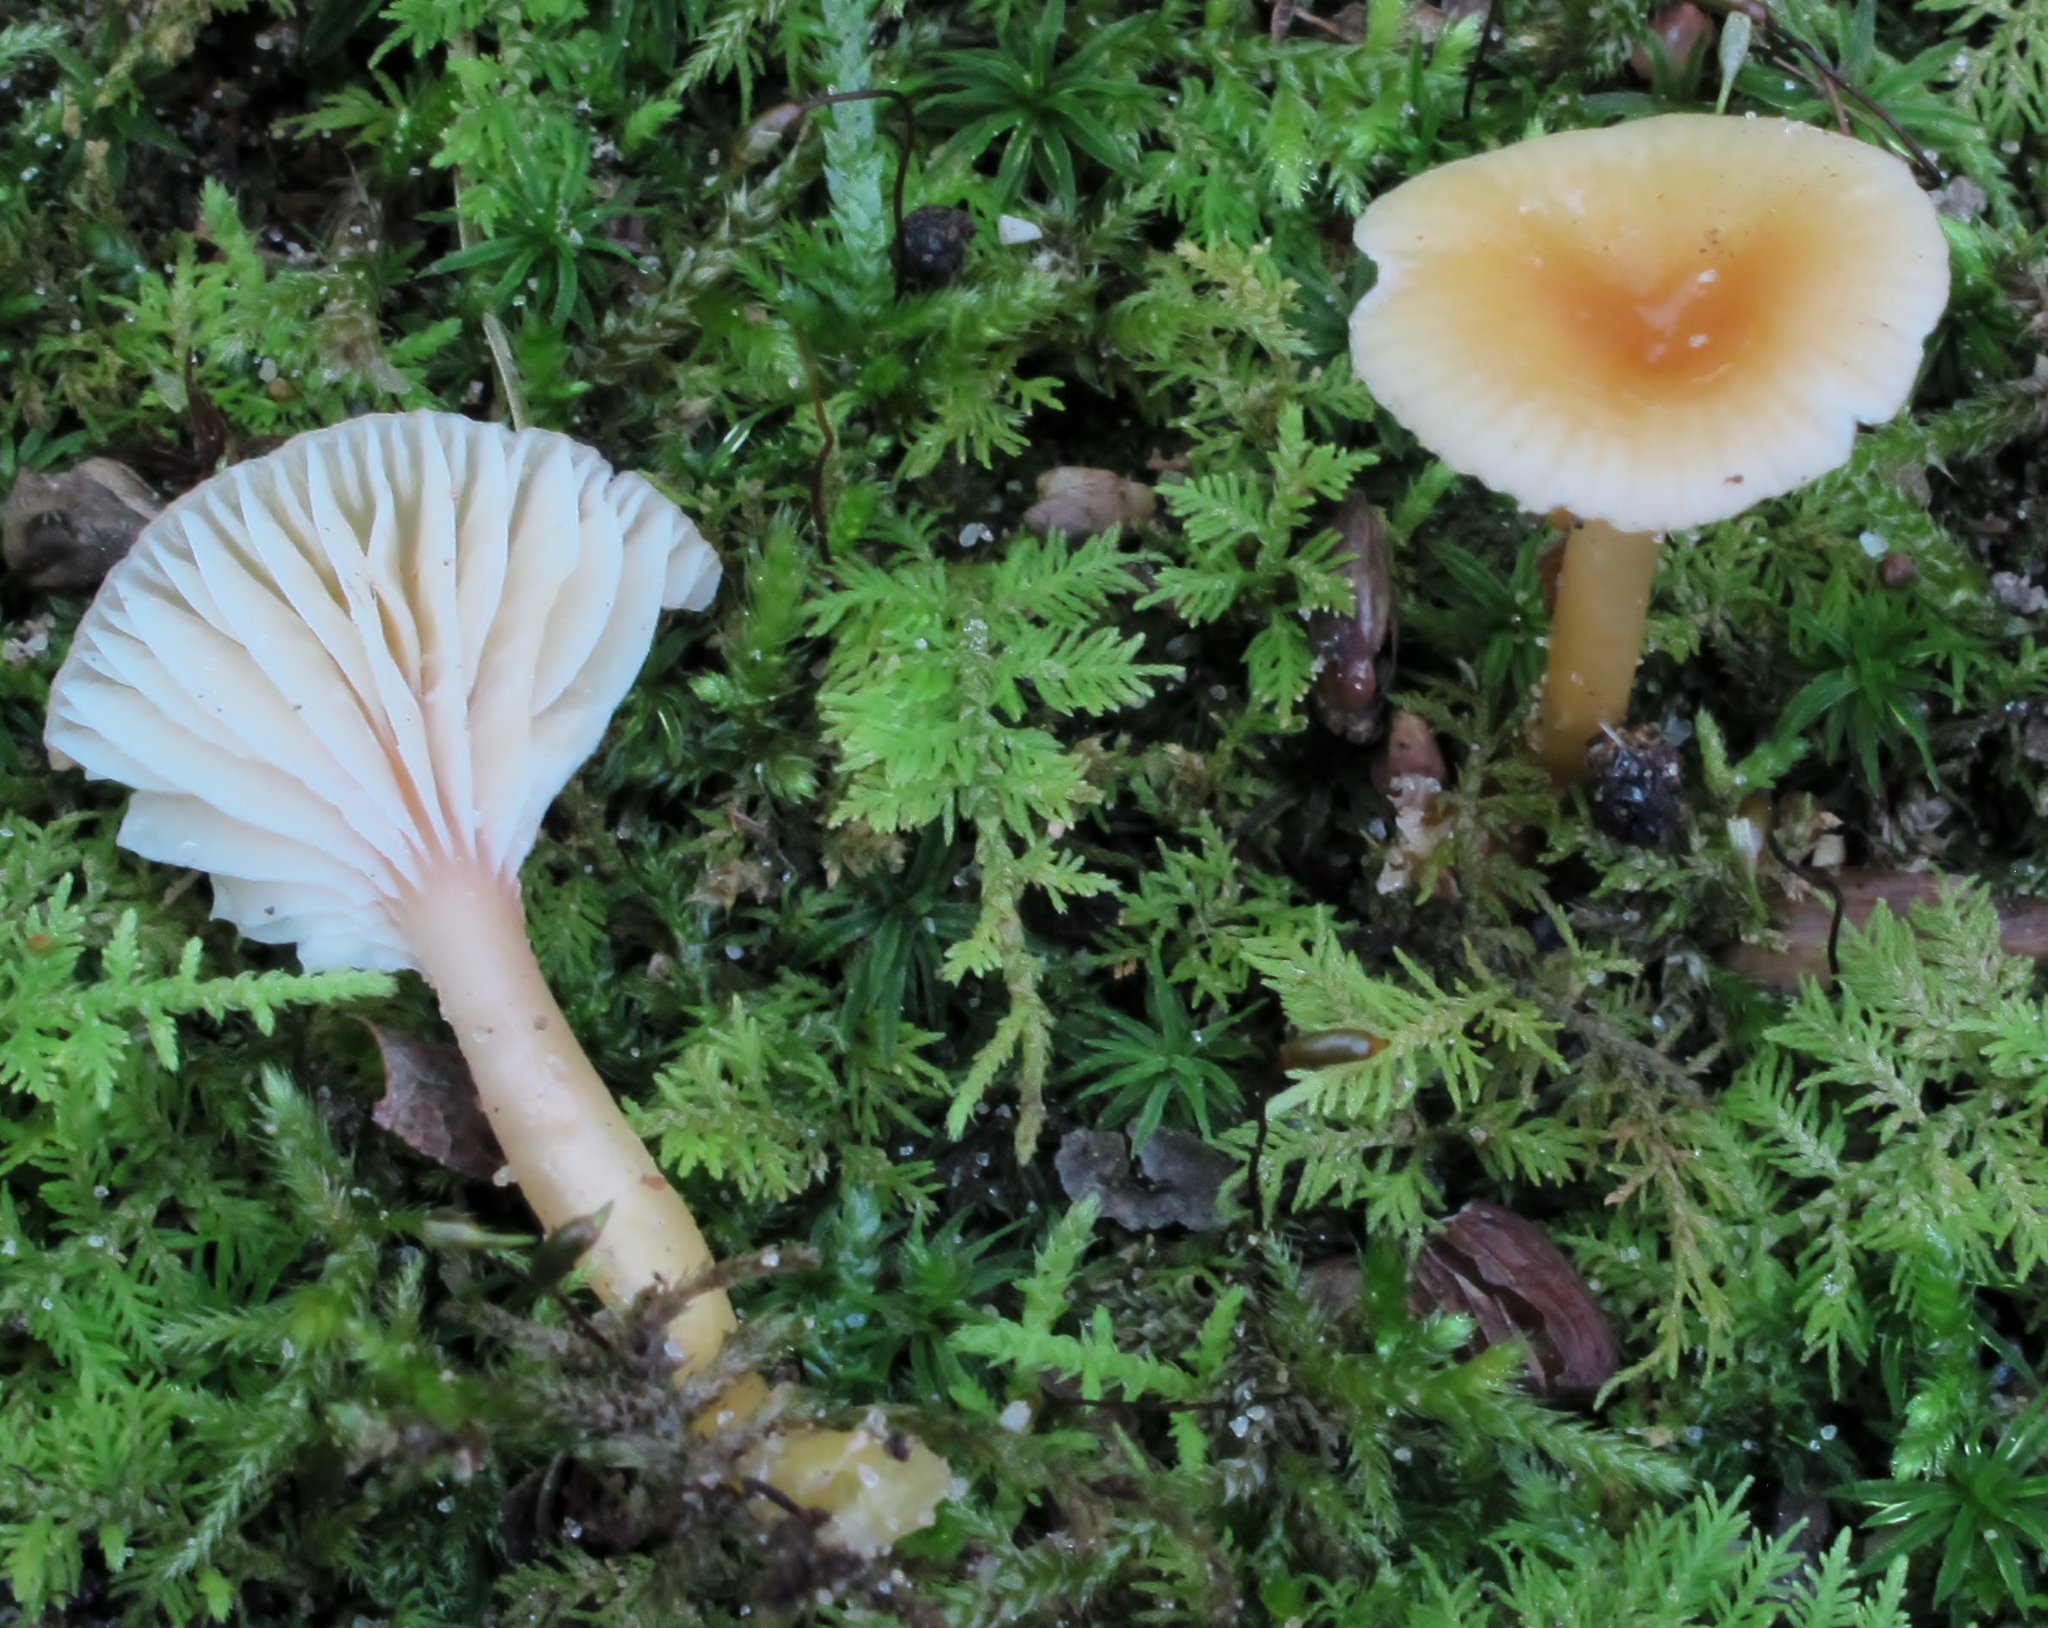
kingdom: Fungi
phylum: Basidiomycota
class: Agaricomycetes
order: Agaricales
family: Hygrophoraceae
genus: Gliophorus
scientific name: Gliophorus laetus
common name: Heath waxcap
